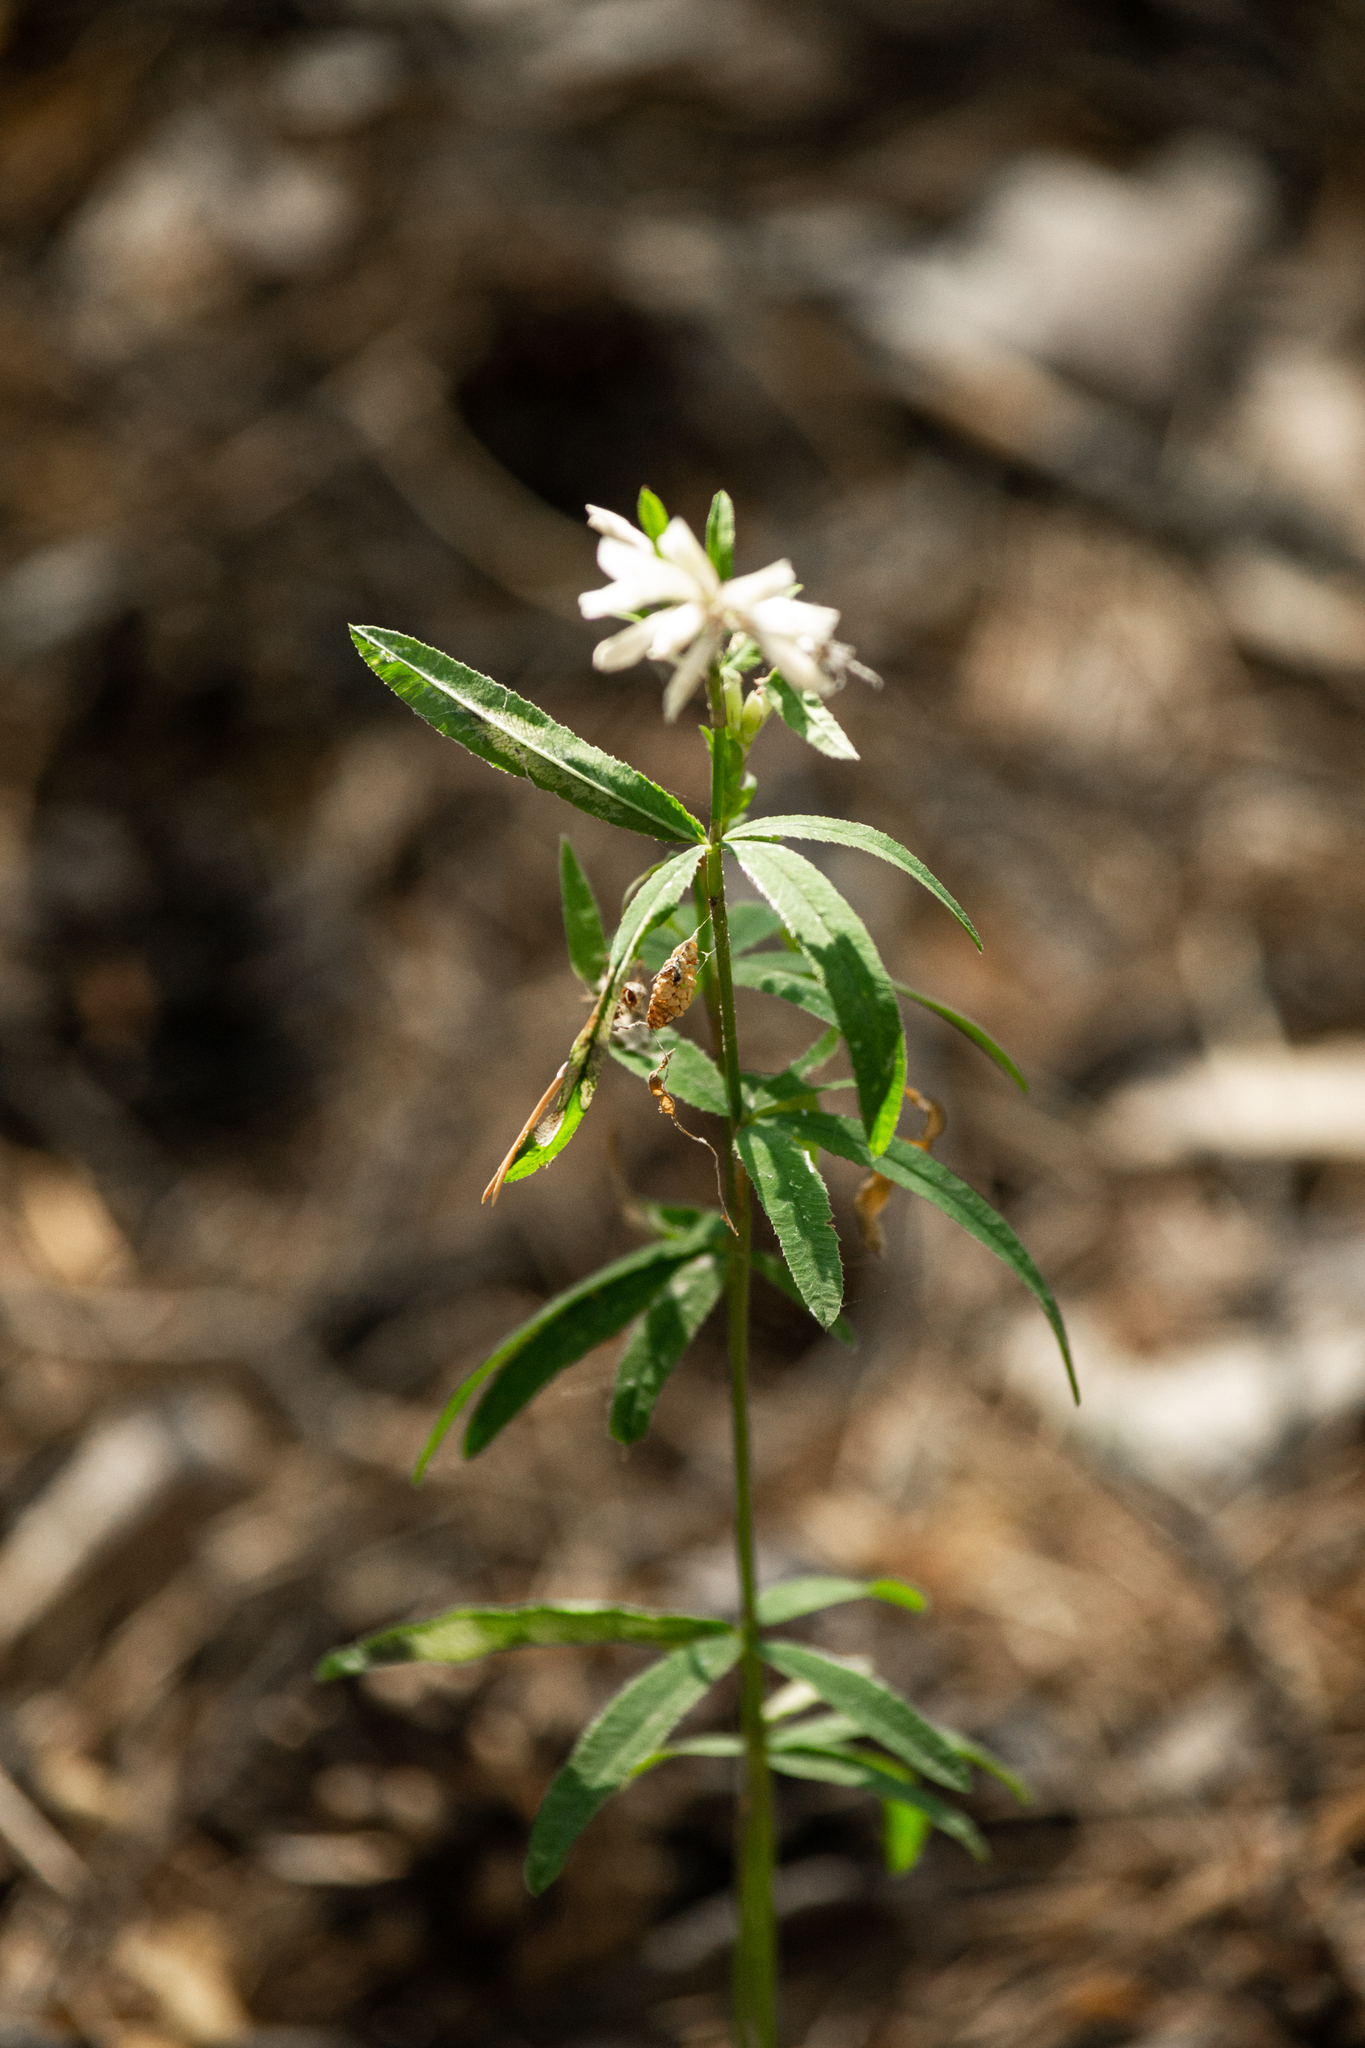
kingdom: Plantae
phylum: Tracheophyta
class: Magnoliopsida
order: Fabales
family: Fabaceae
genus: Trifolium
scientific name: Trifolium lupinaster
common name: Lupine clover
